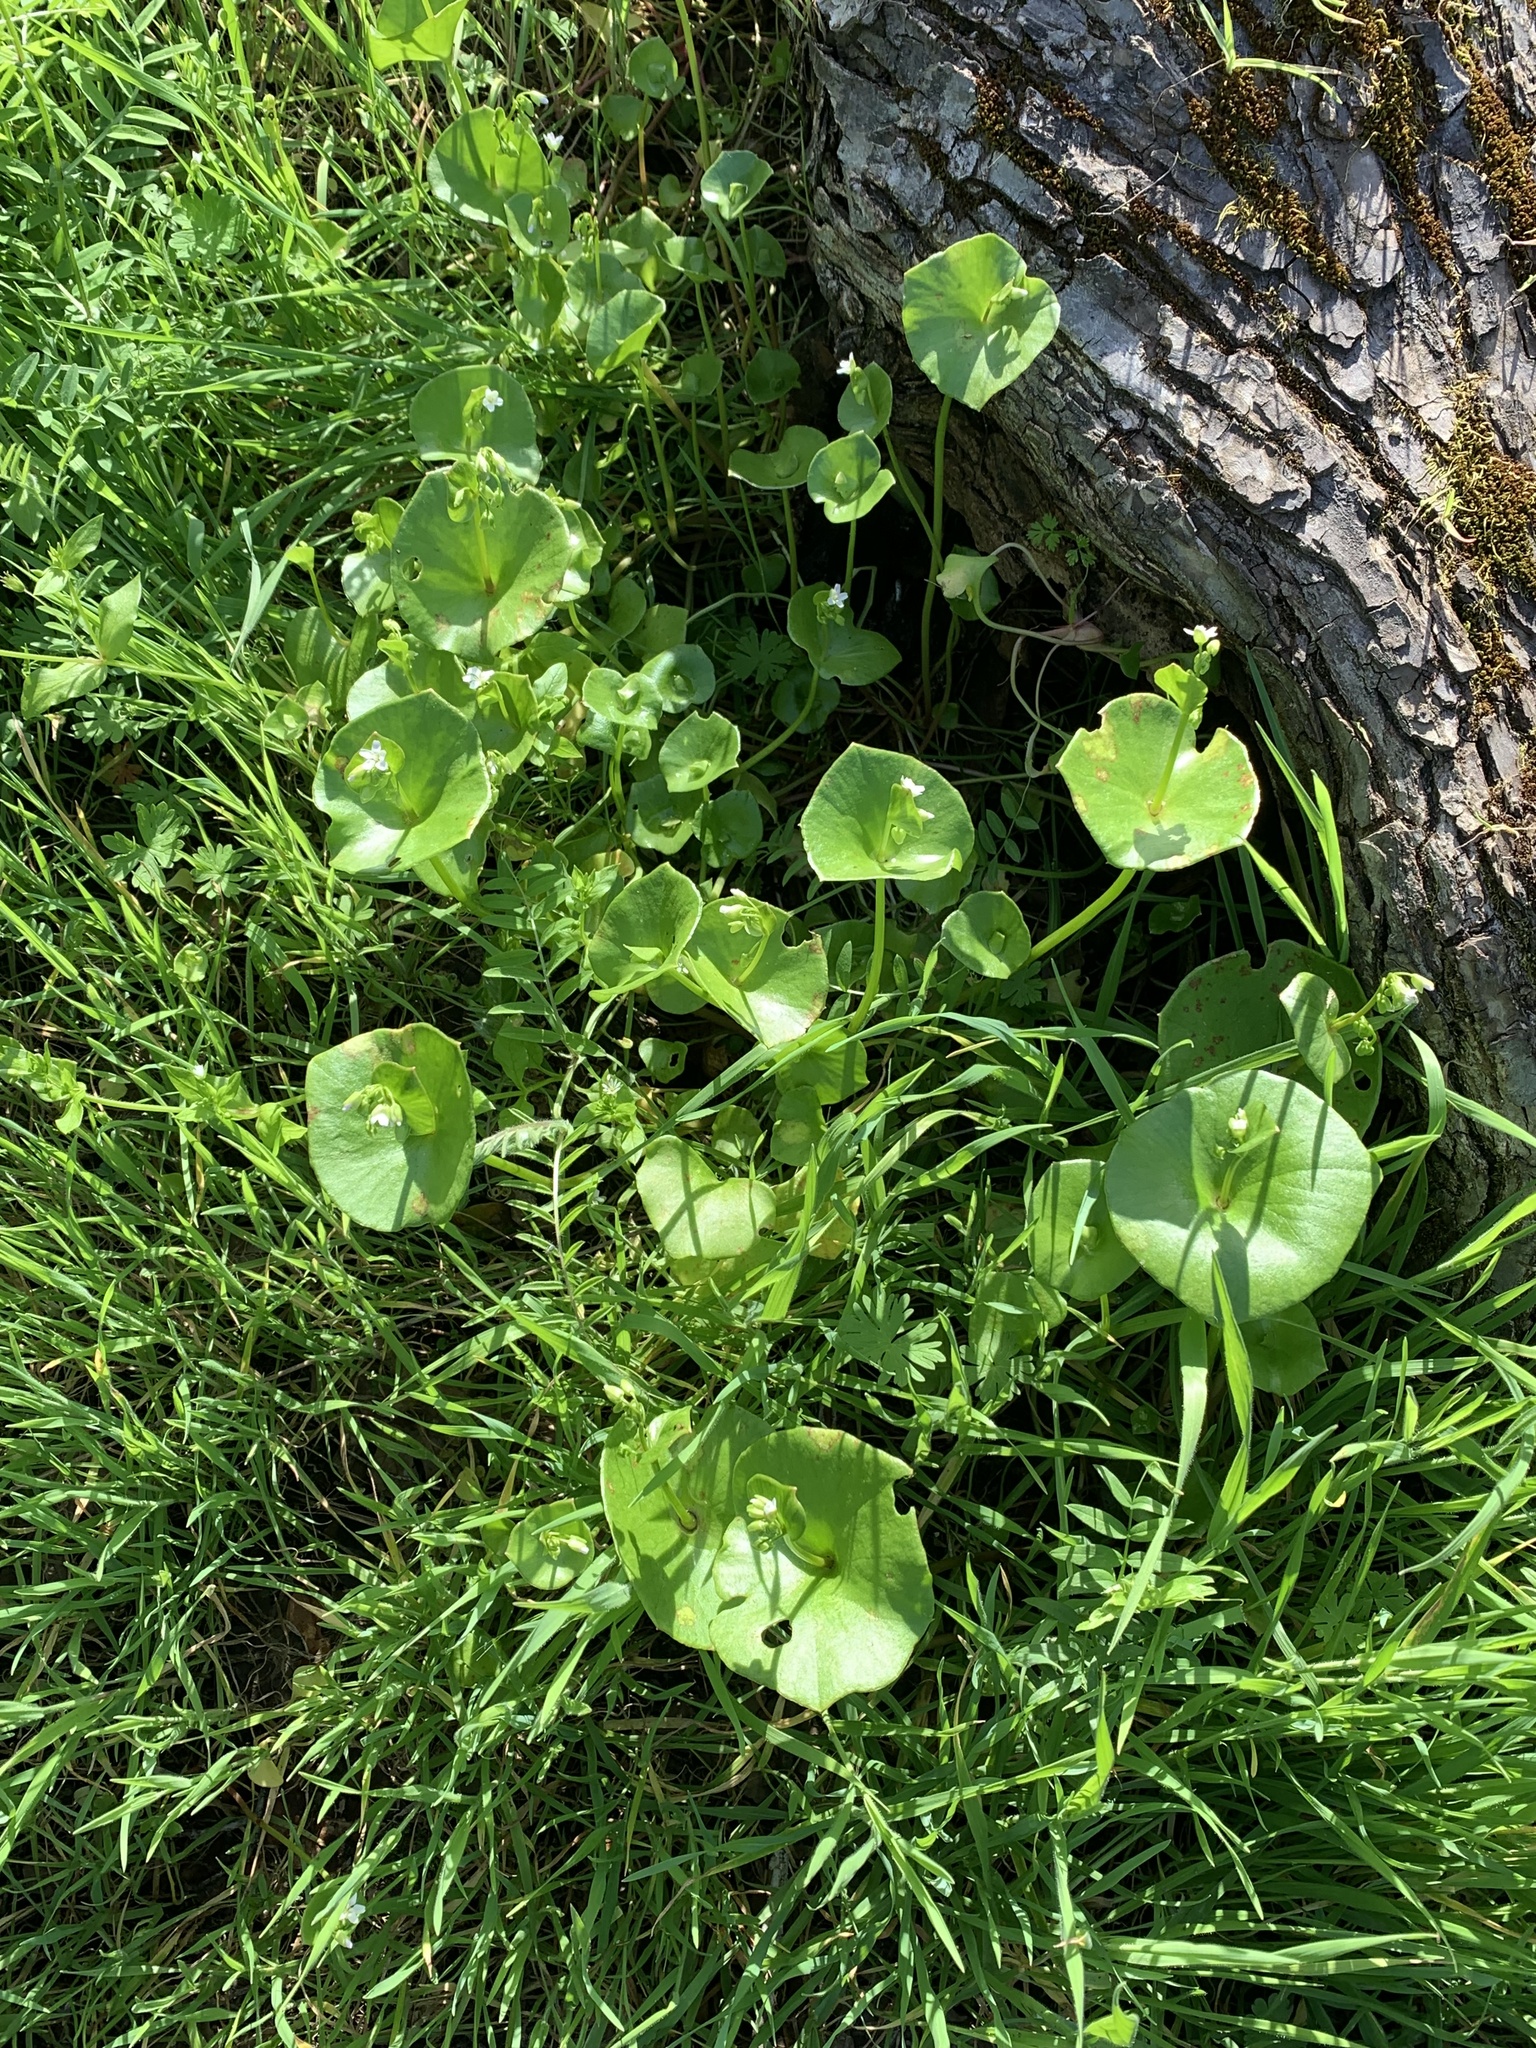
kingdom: Plantae
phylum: Tracheophyta
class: Magnoliopsida
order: Caryophyllales
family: Montiaceae
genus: Claytonia
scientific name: Claytonia perfoliata
